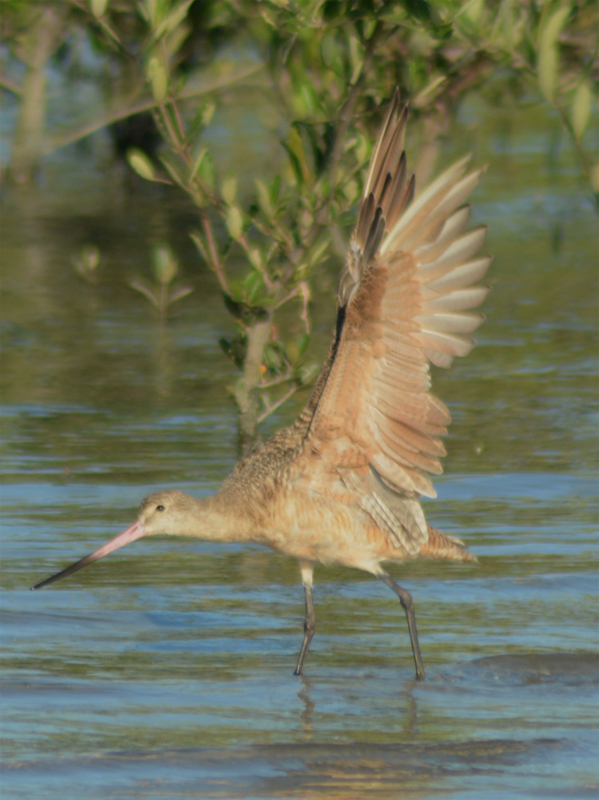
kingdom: Animalia
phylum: Chordata
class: Aves
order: Charadriiformes
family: Scolopacidae
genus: Limosa
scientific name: Limosa fedoa
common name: Marbled godwit
